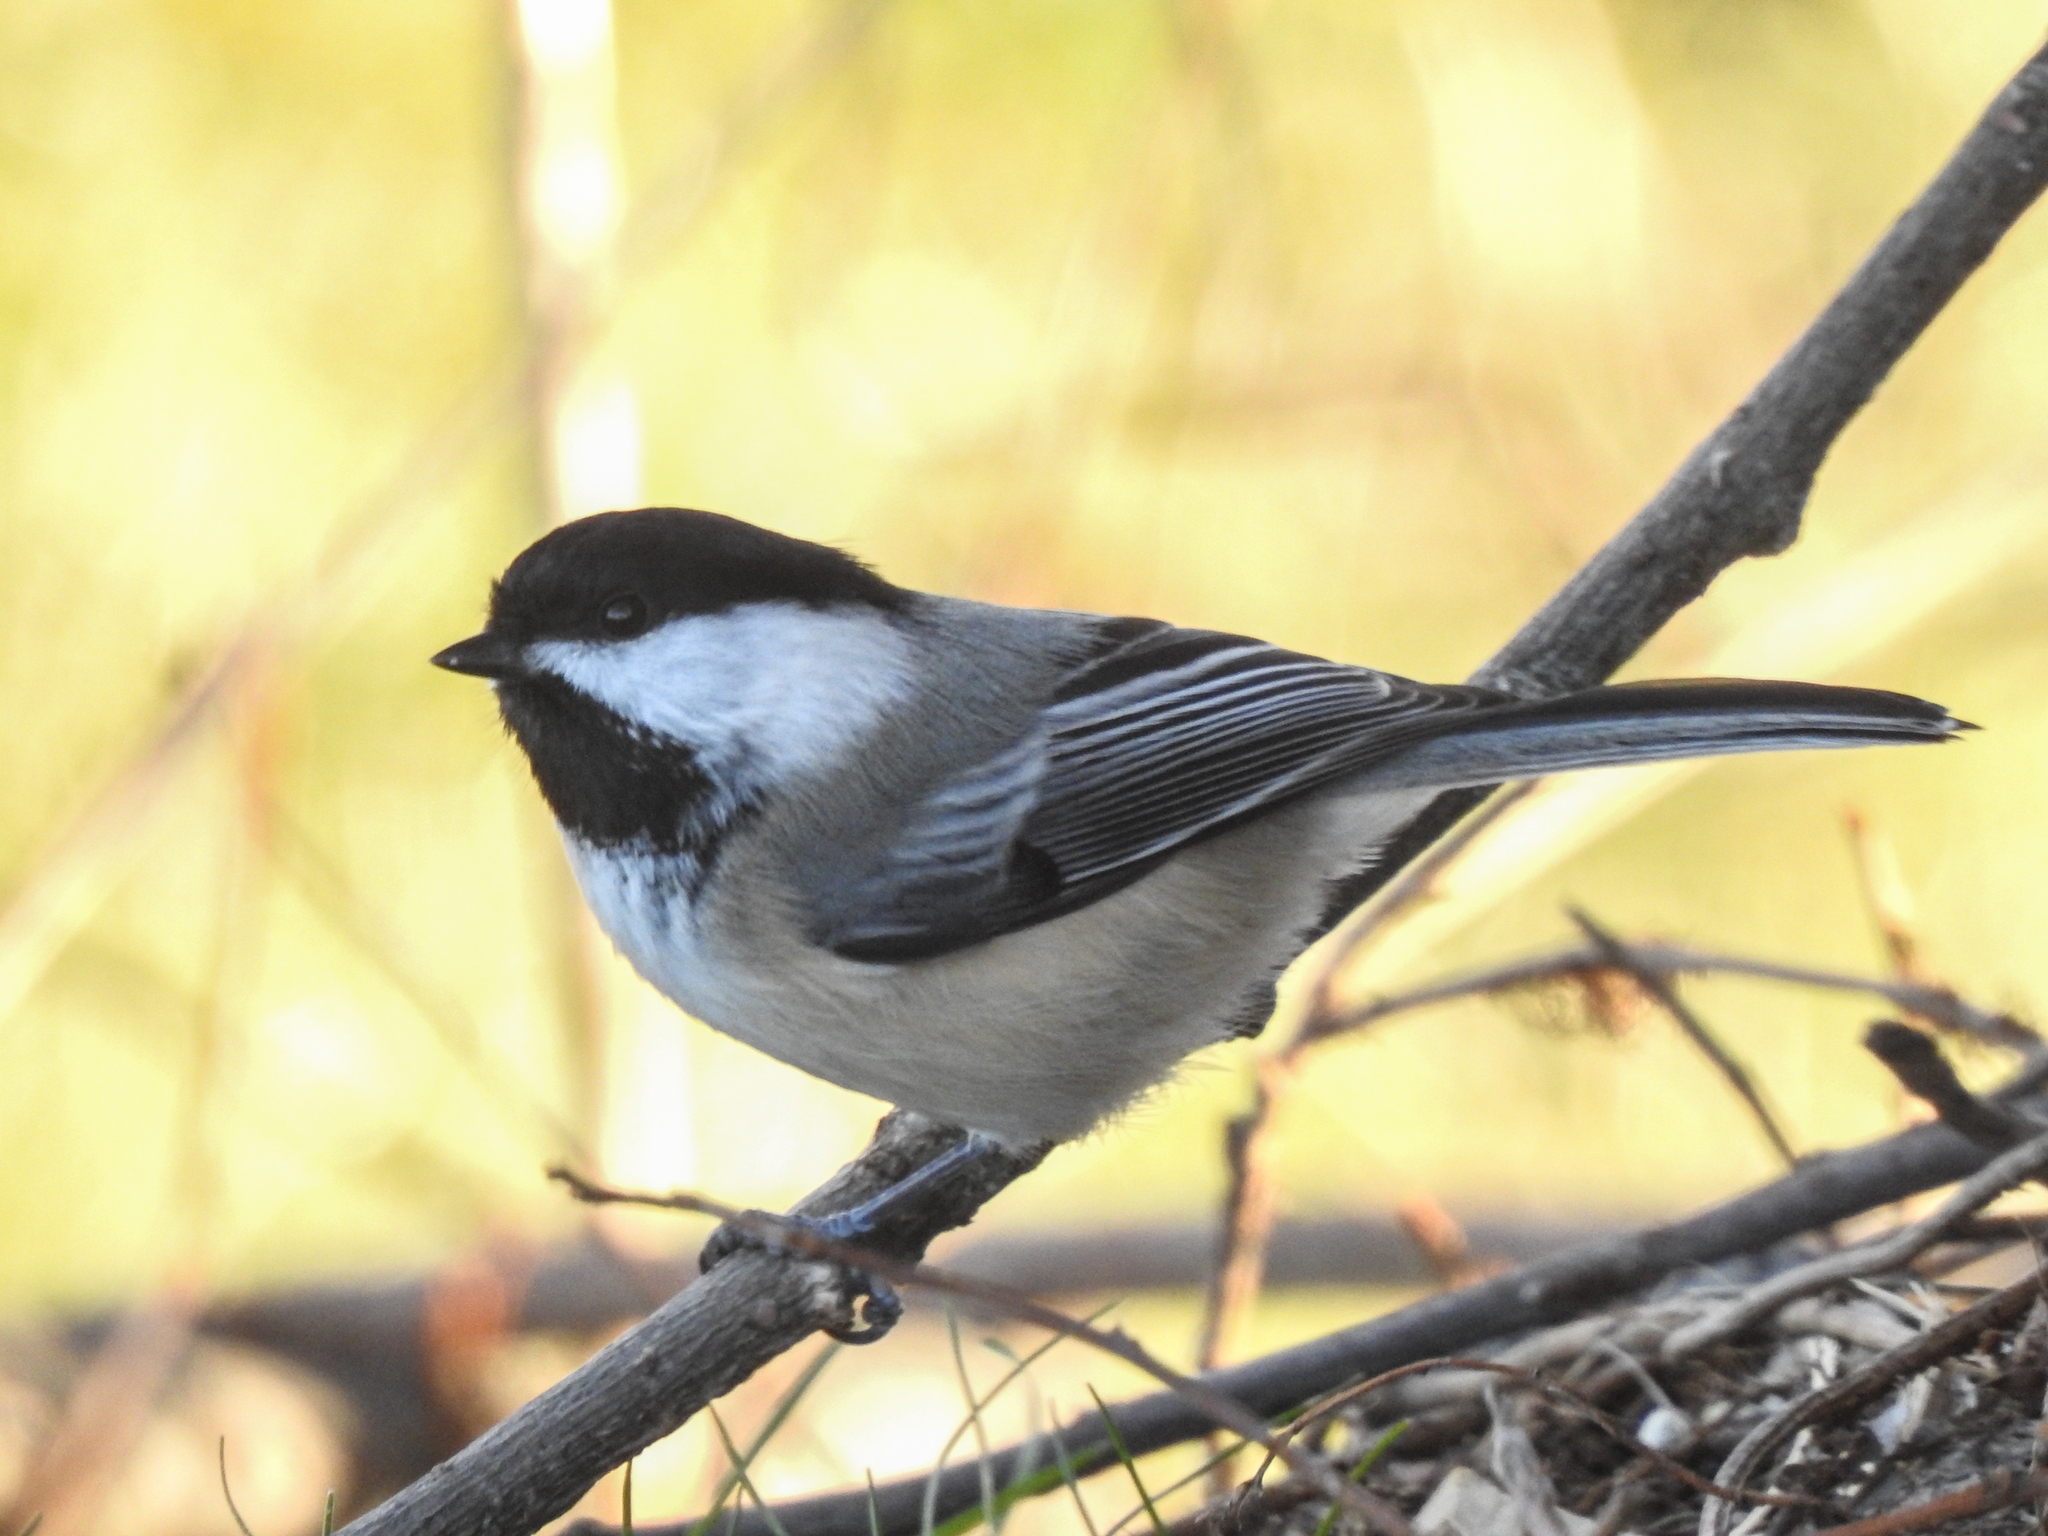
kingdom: Animalia
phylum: Chordata
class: Aves
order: Passeriformes
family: Paridae
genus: Poecile
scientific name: Poecile atricapillus
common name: Black-capped chickadee
